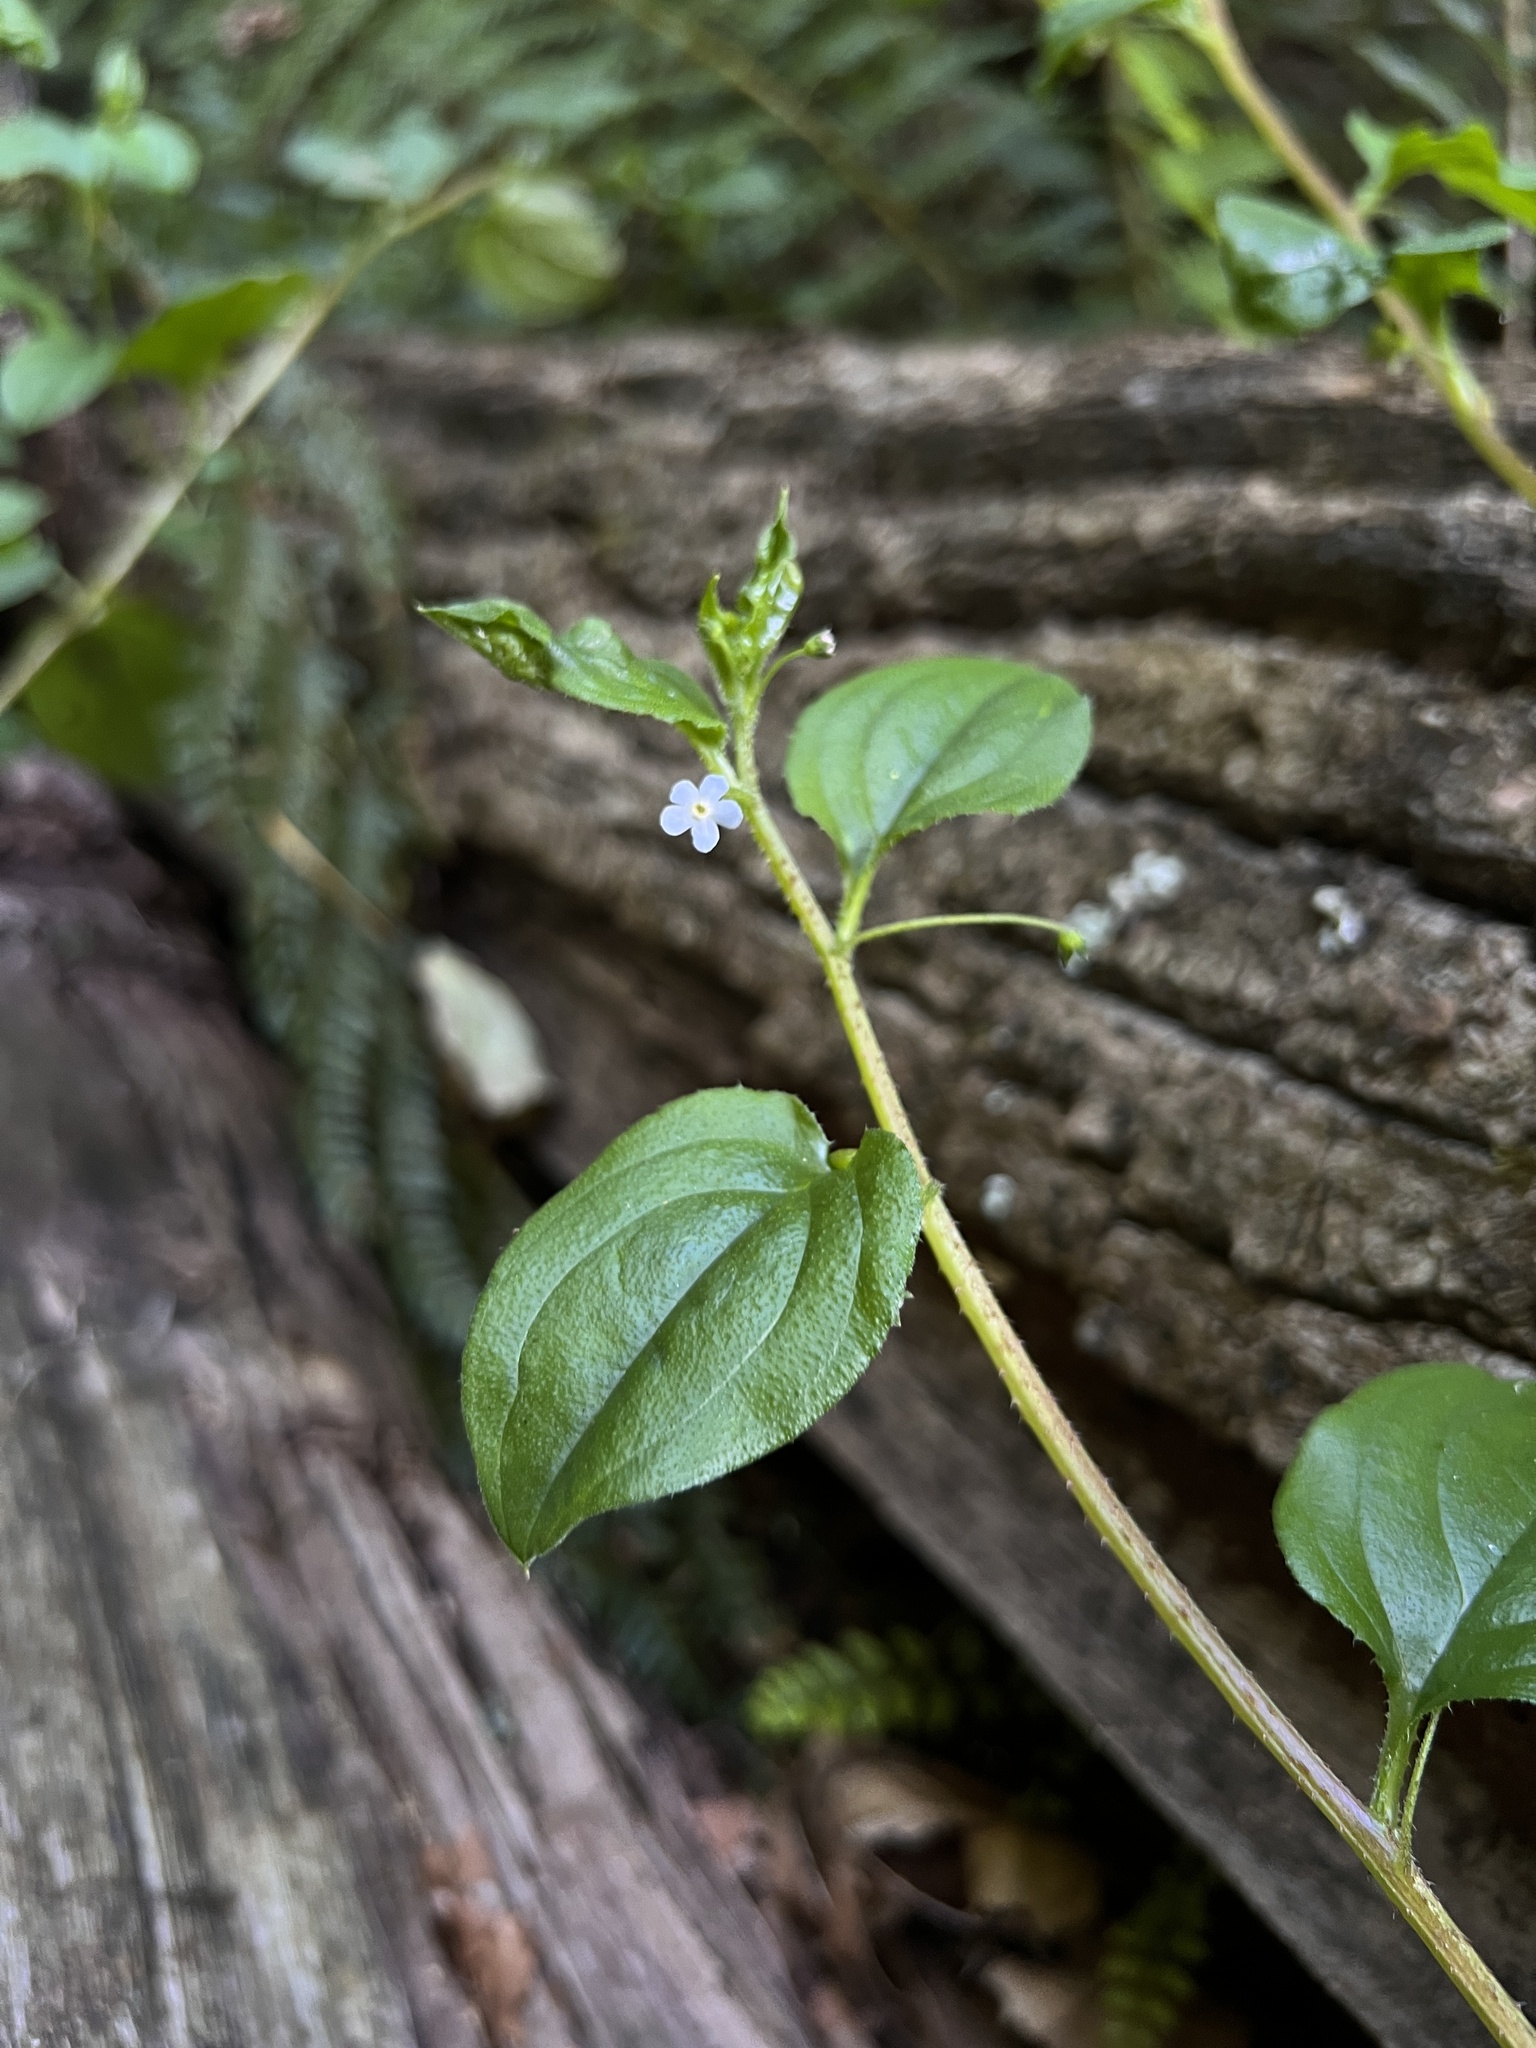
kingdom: Plantae
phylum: Tracheophyta
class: Magnoliopsida
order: Boraginales
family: Boraginaceae
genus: Hackelia
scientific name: Hackelia latifolia
